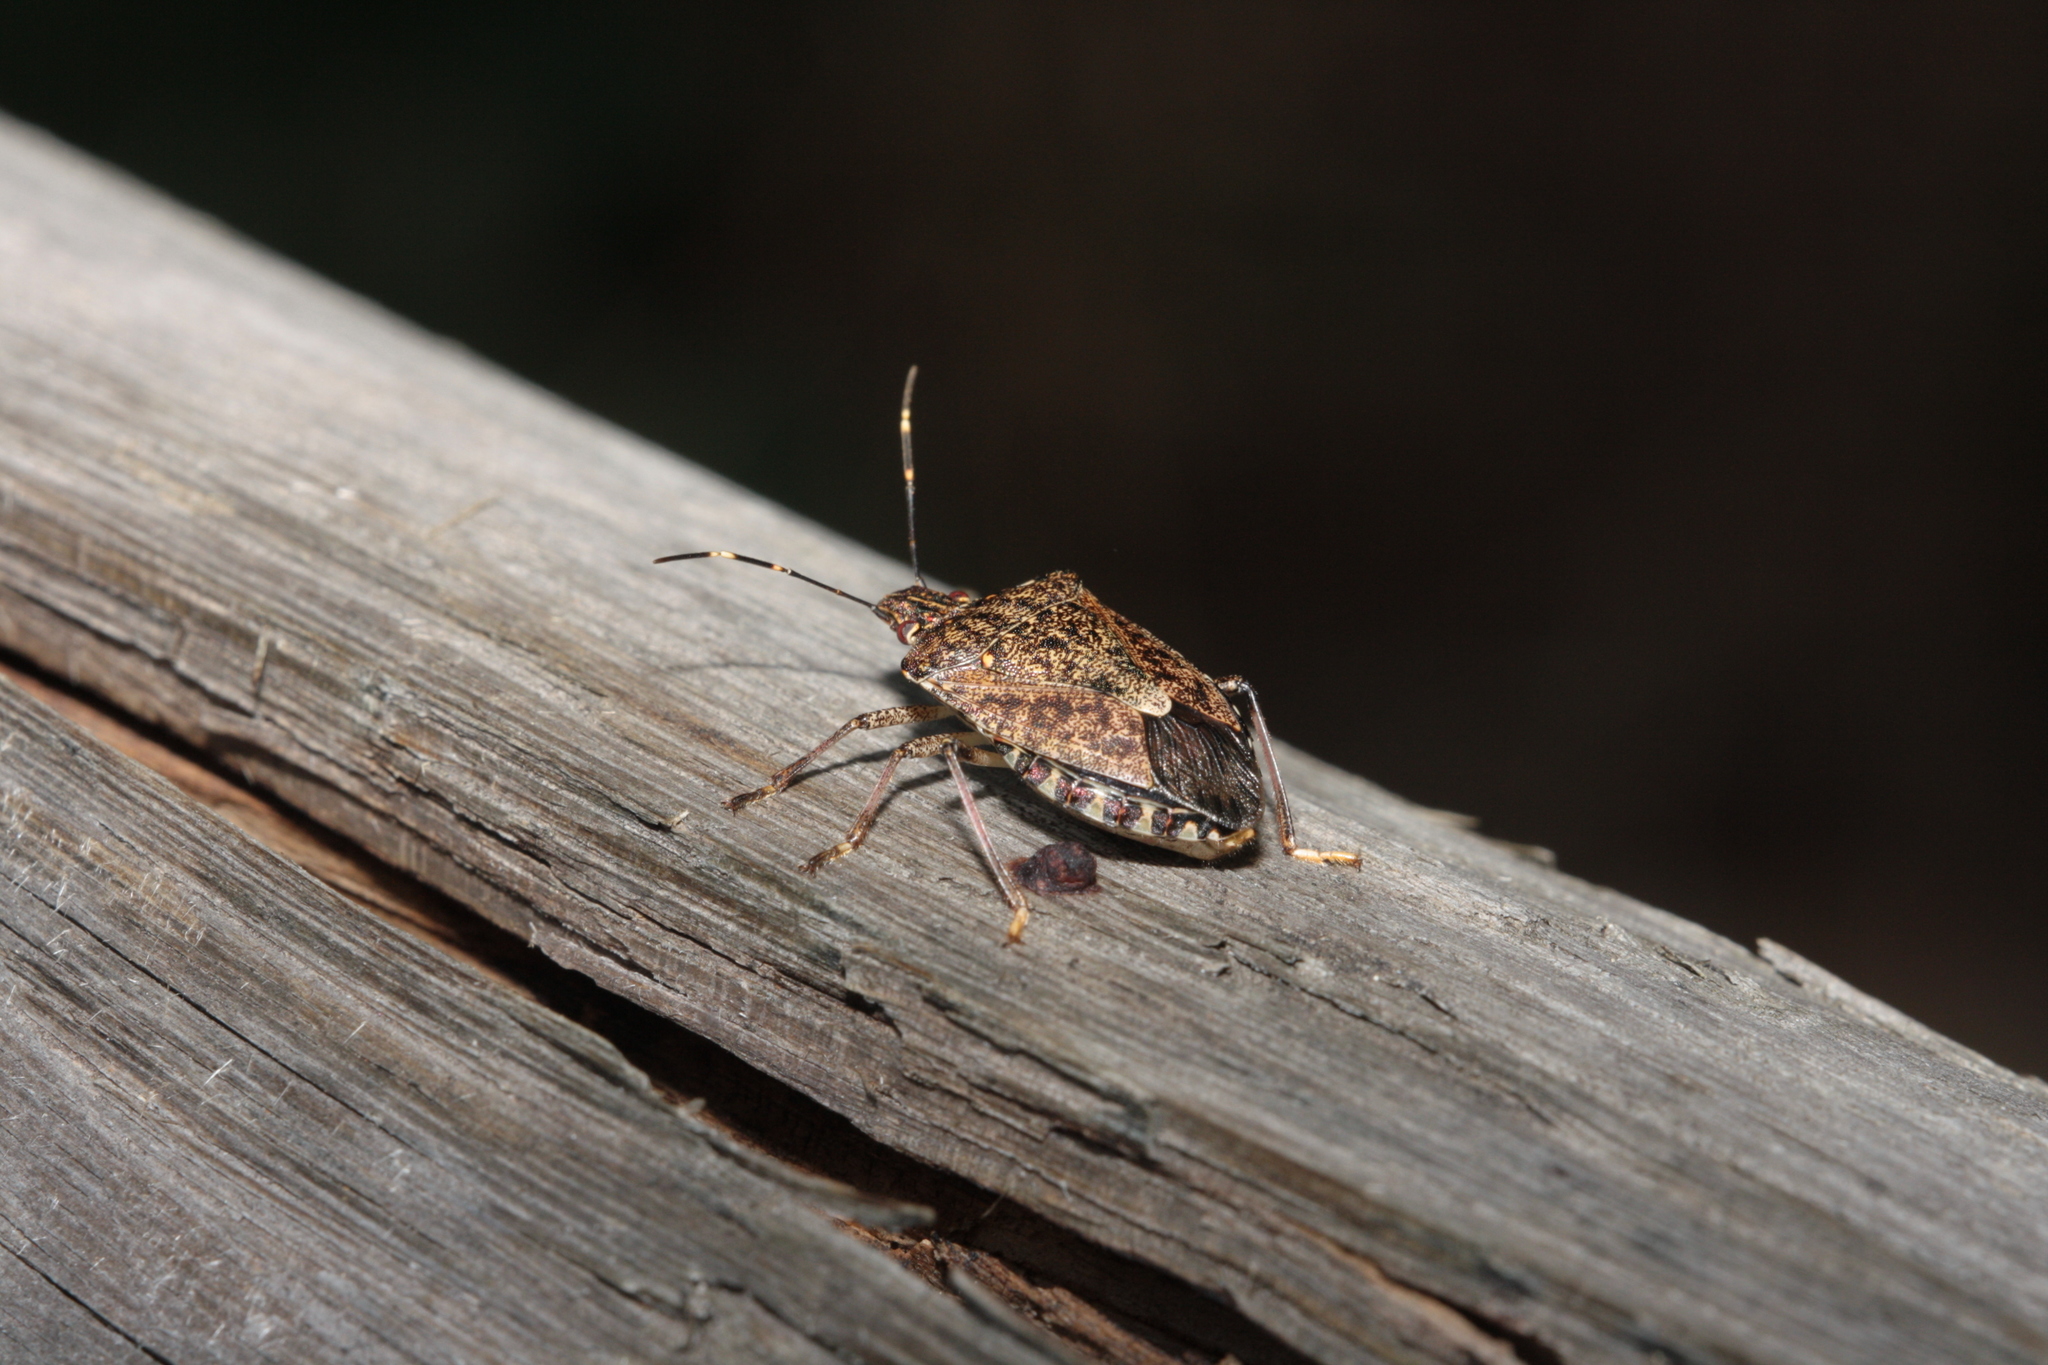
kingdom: Animalia
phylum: Arthropoda
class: Insecta
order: Hemiptera
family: Pentatomidae
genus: Halyomorpha
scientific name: Halyomorpha halys
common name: Brown marmorated stink bug
